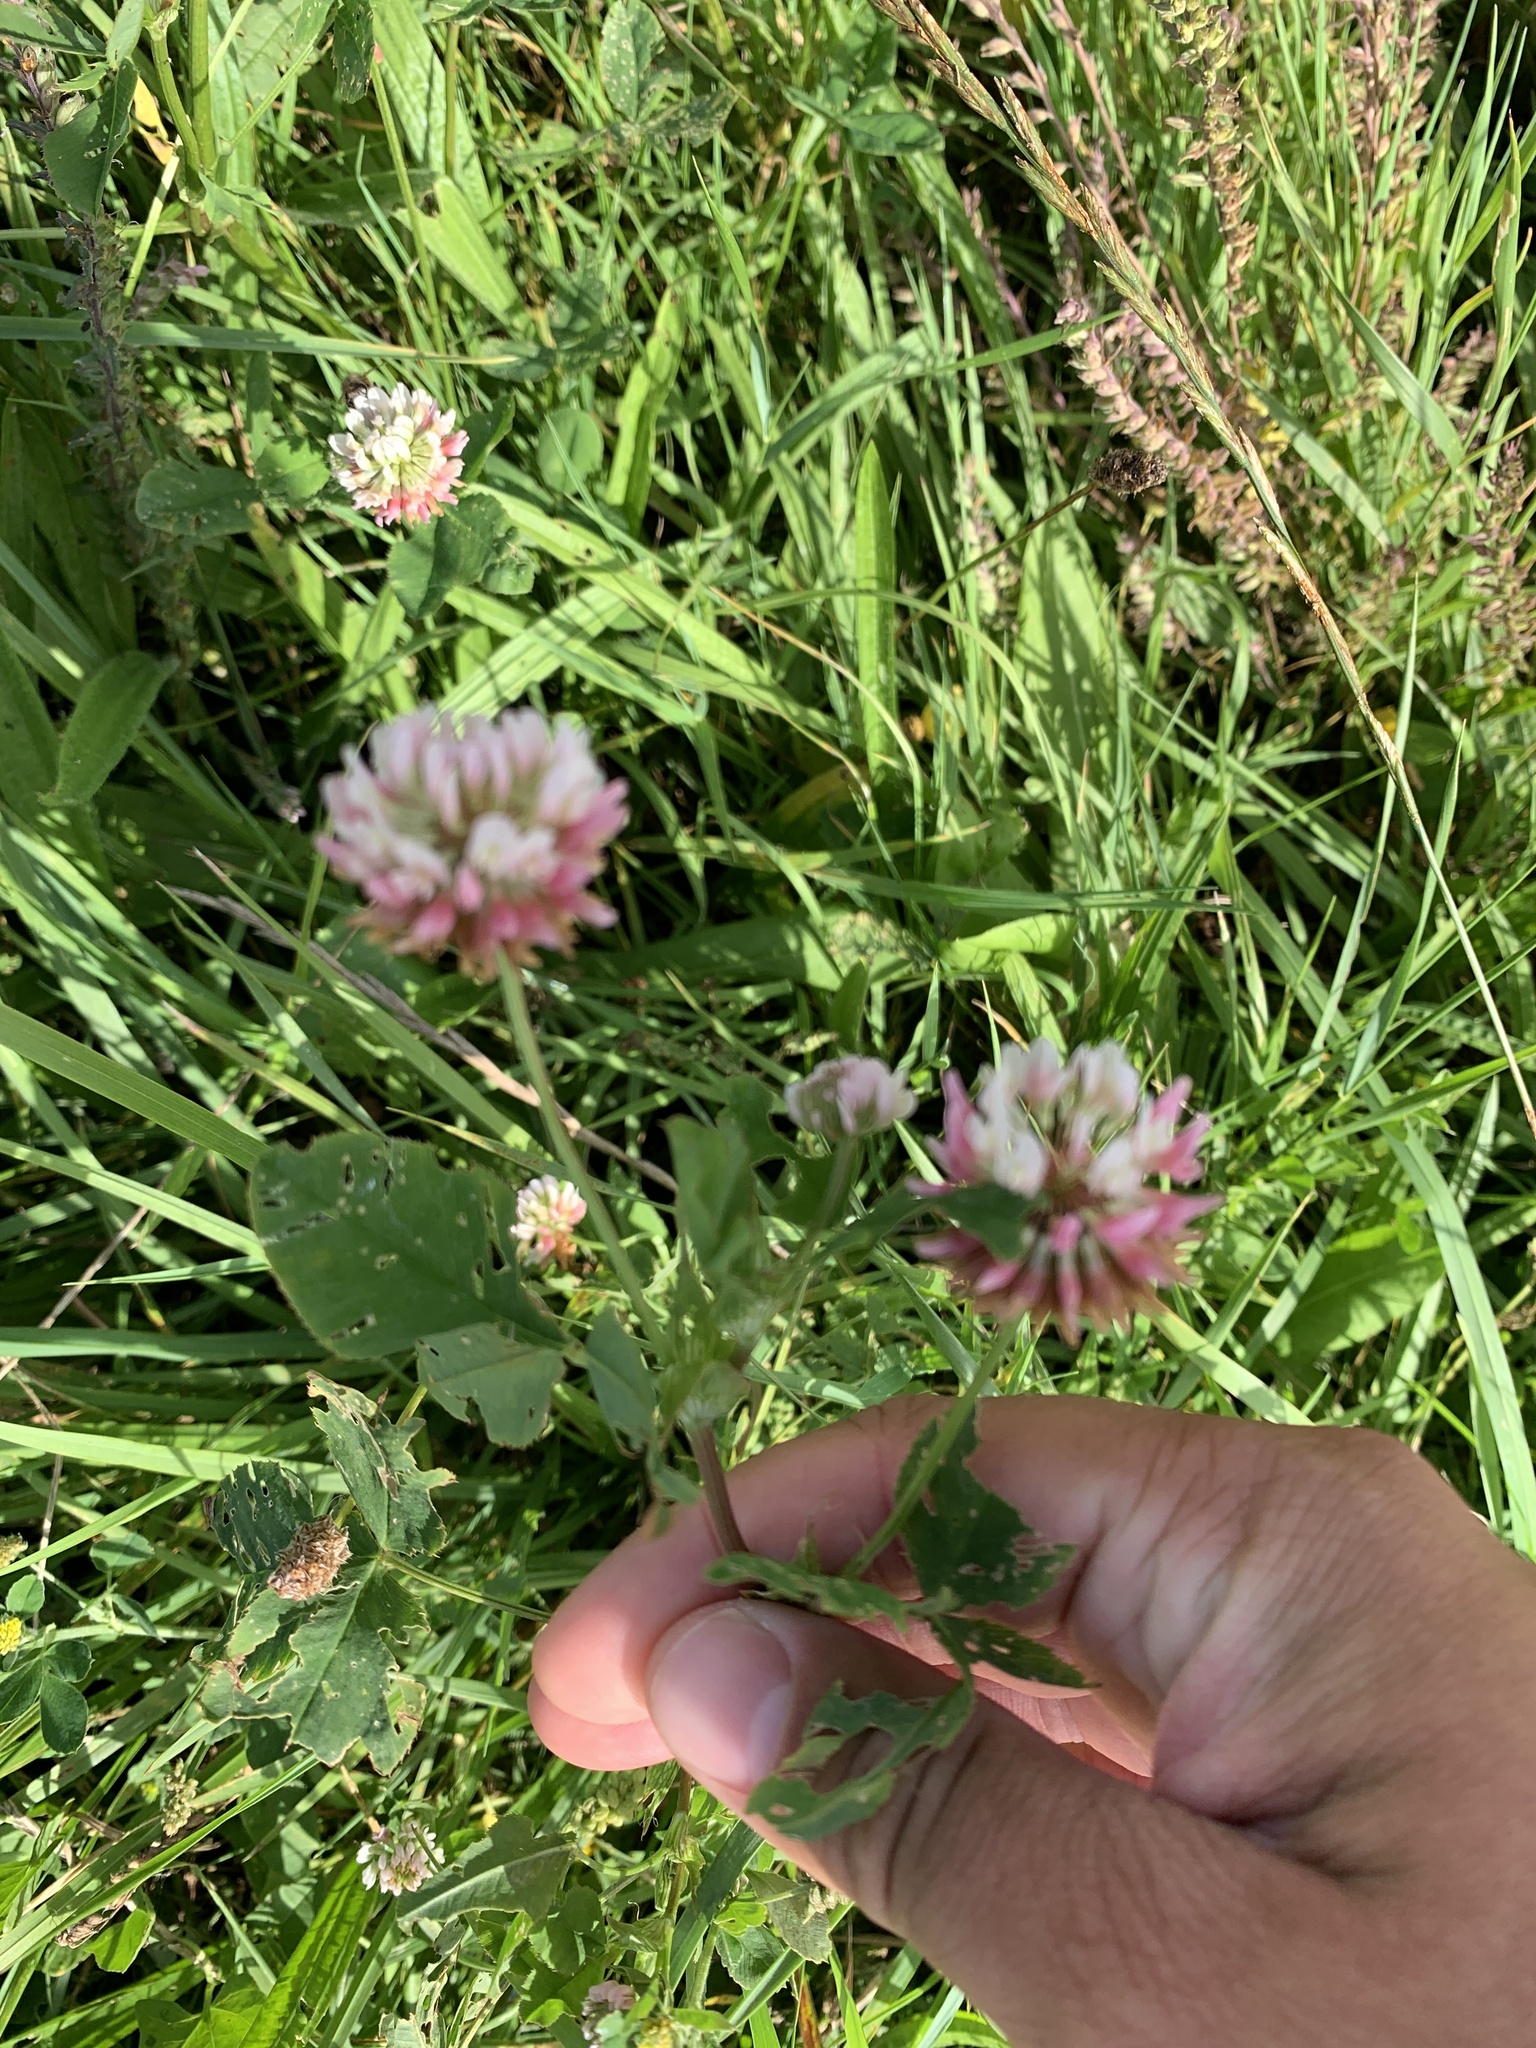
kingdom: Plantae
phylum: Tracheophyta
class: Magnoliopsida
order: Fabales
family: Fabaceae
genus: Trifolium
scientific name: Trifolium hybridum
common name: Alsike clover
